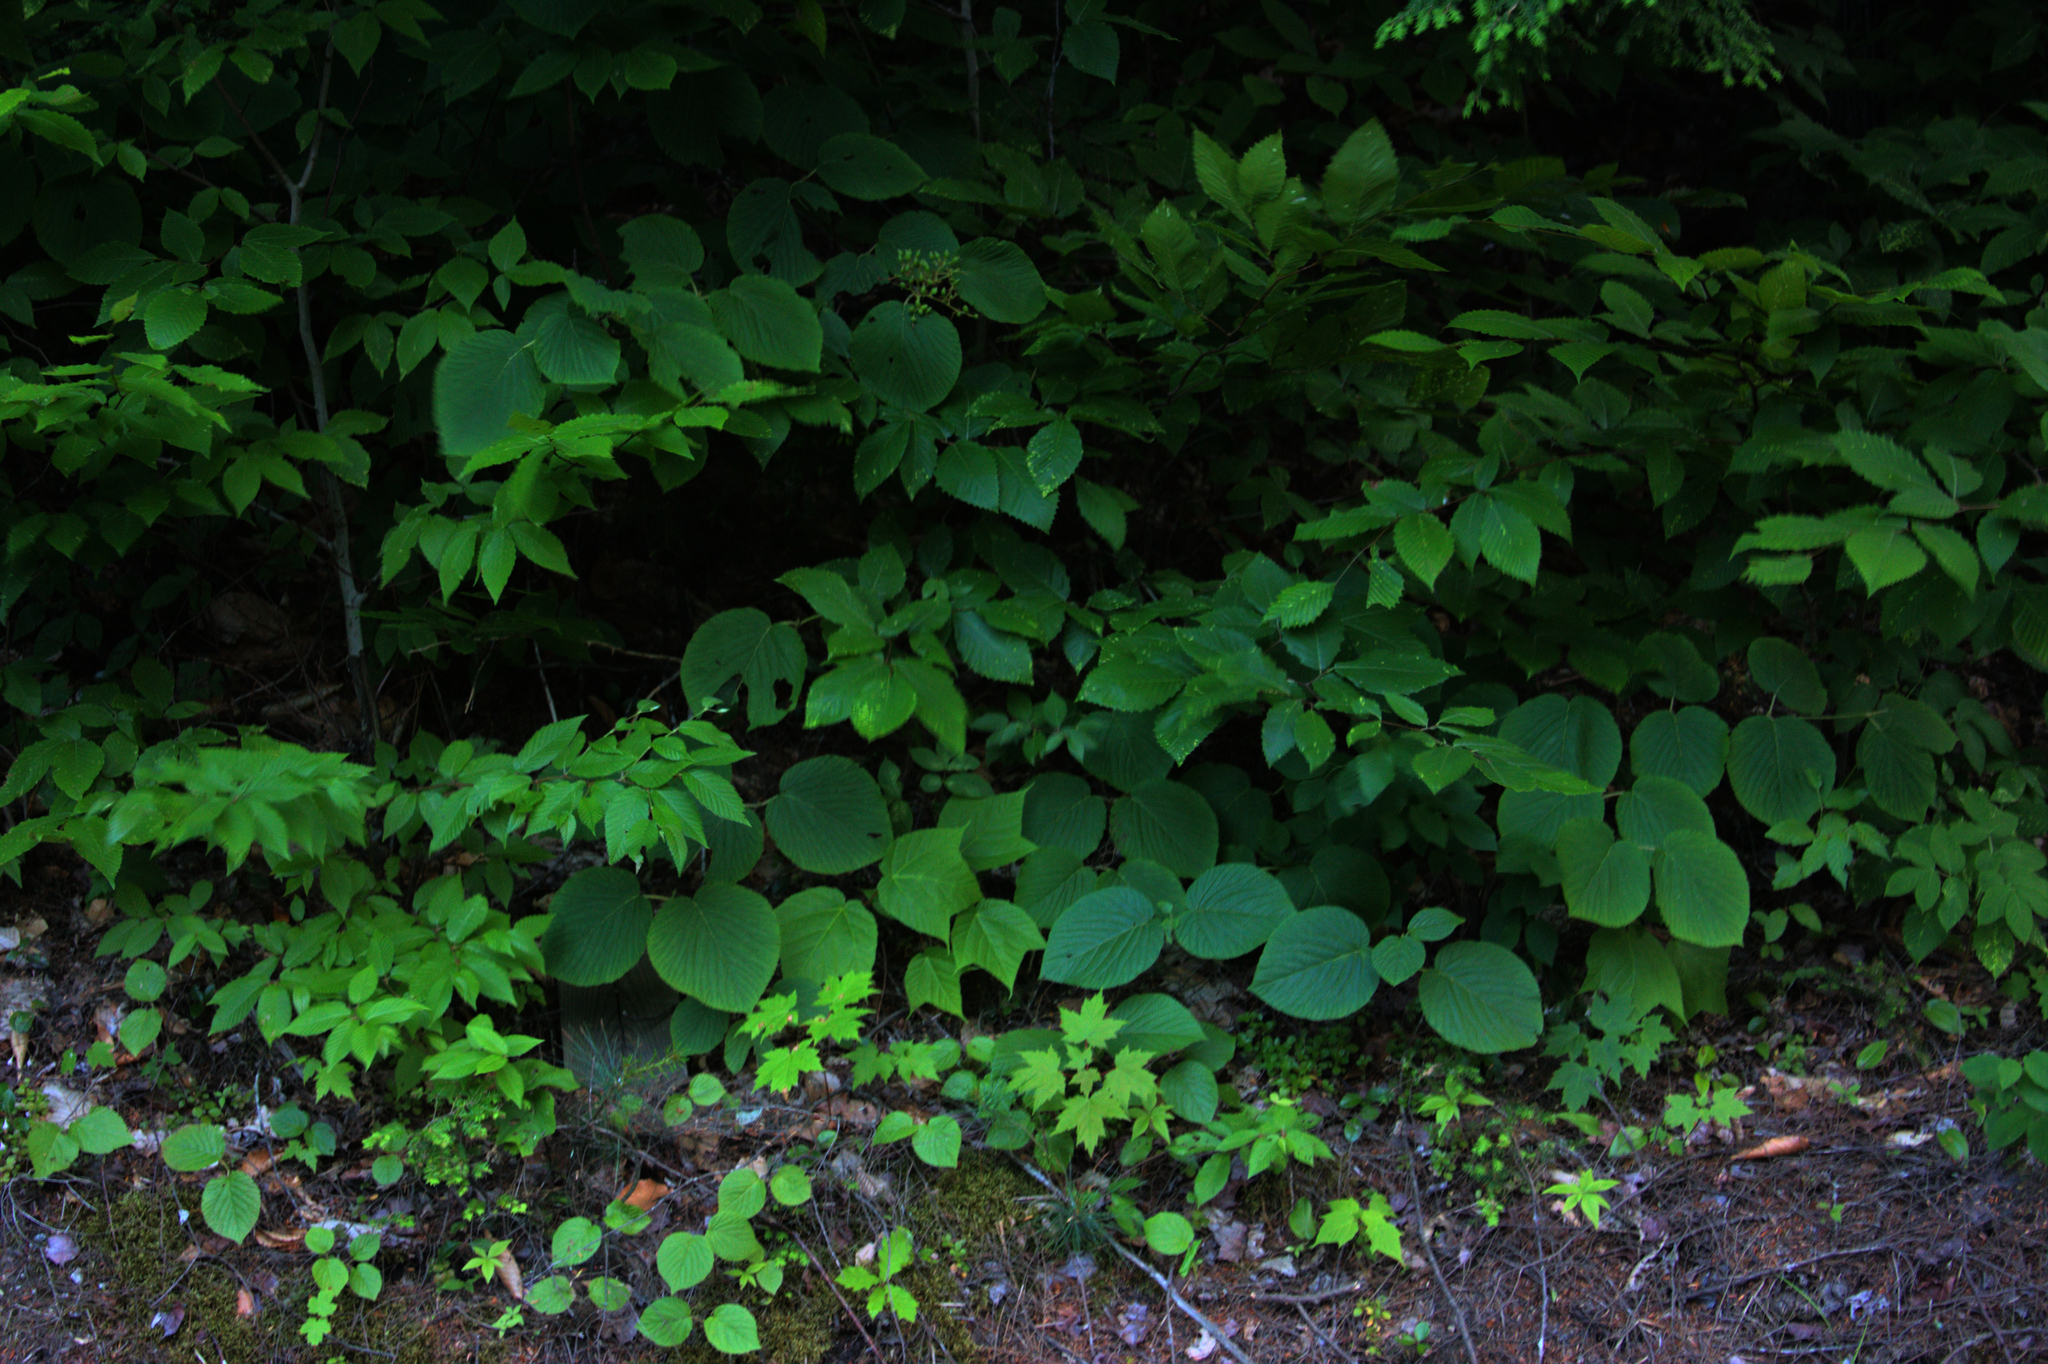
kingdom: Plantae
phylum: Tracheophyta
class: Magnoliopsida
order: Dipsacales
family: Viburnaceae
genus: Viburnum
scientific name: Viburnum lantanoides
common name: Hobblebush
